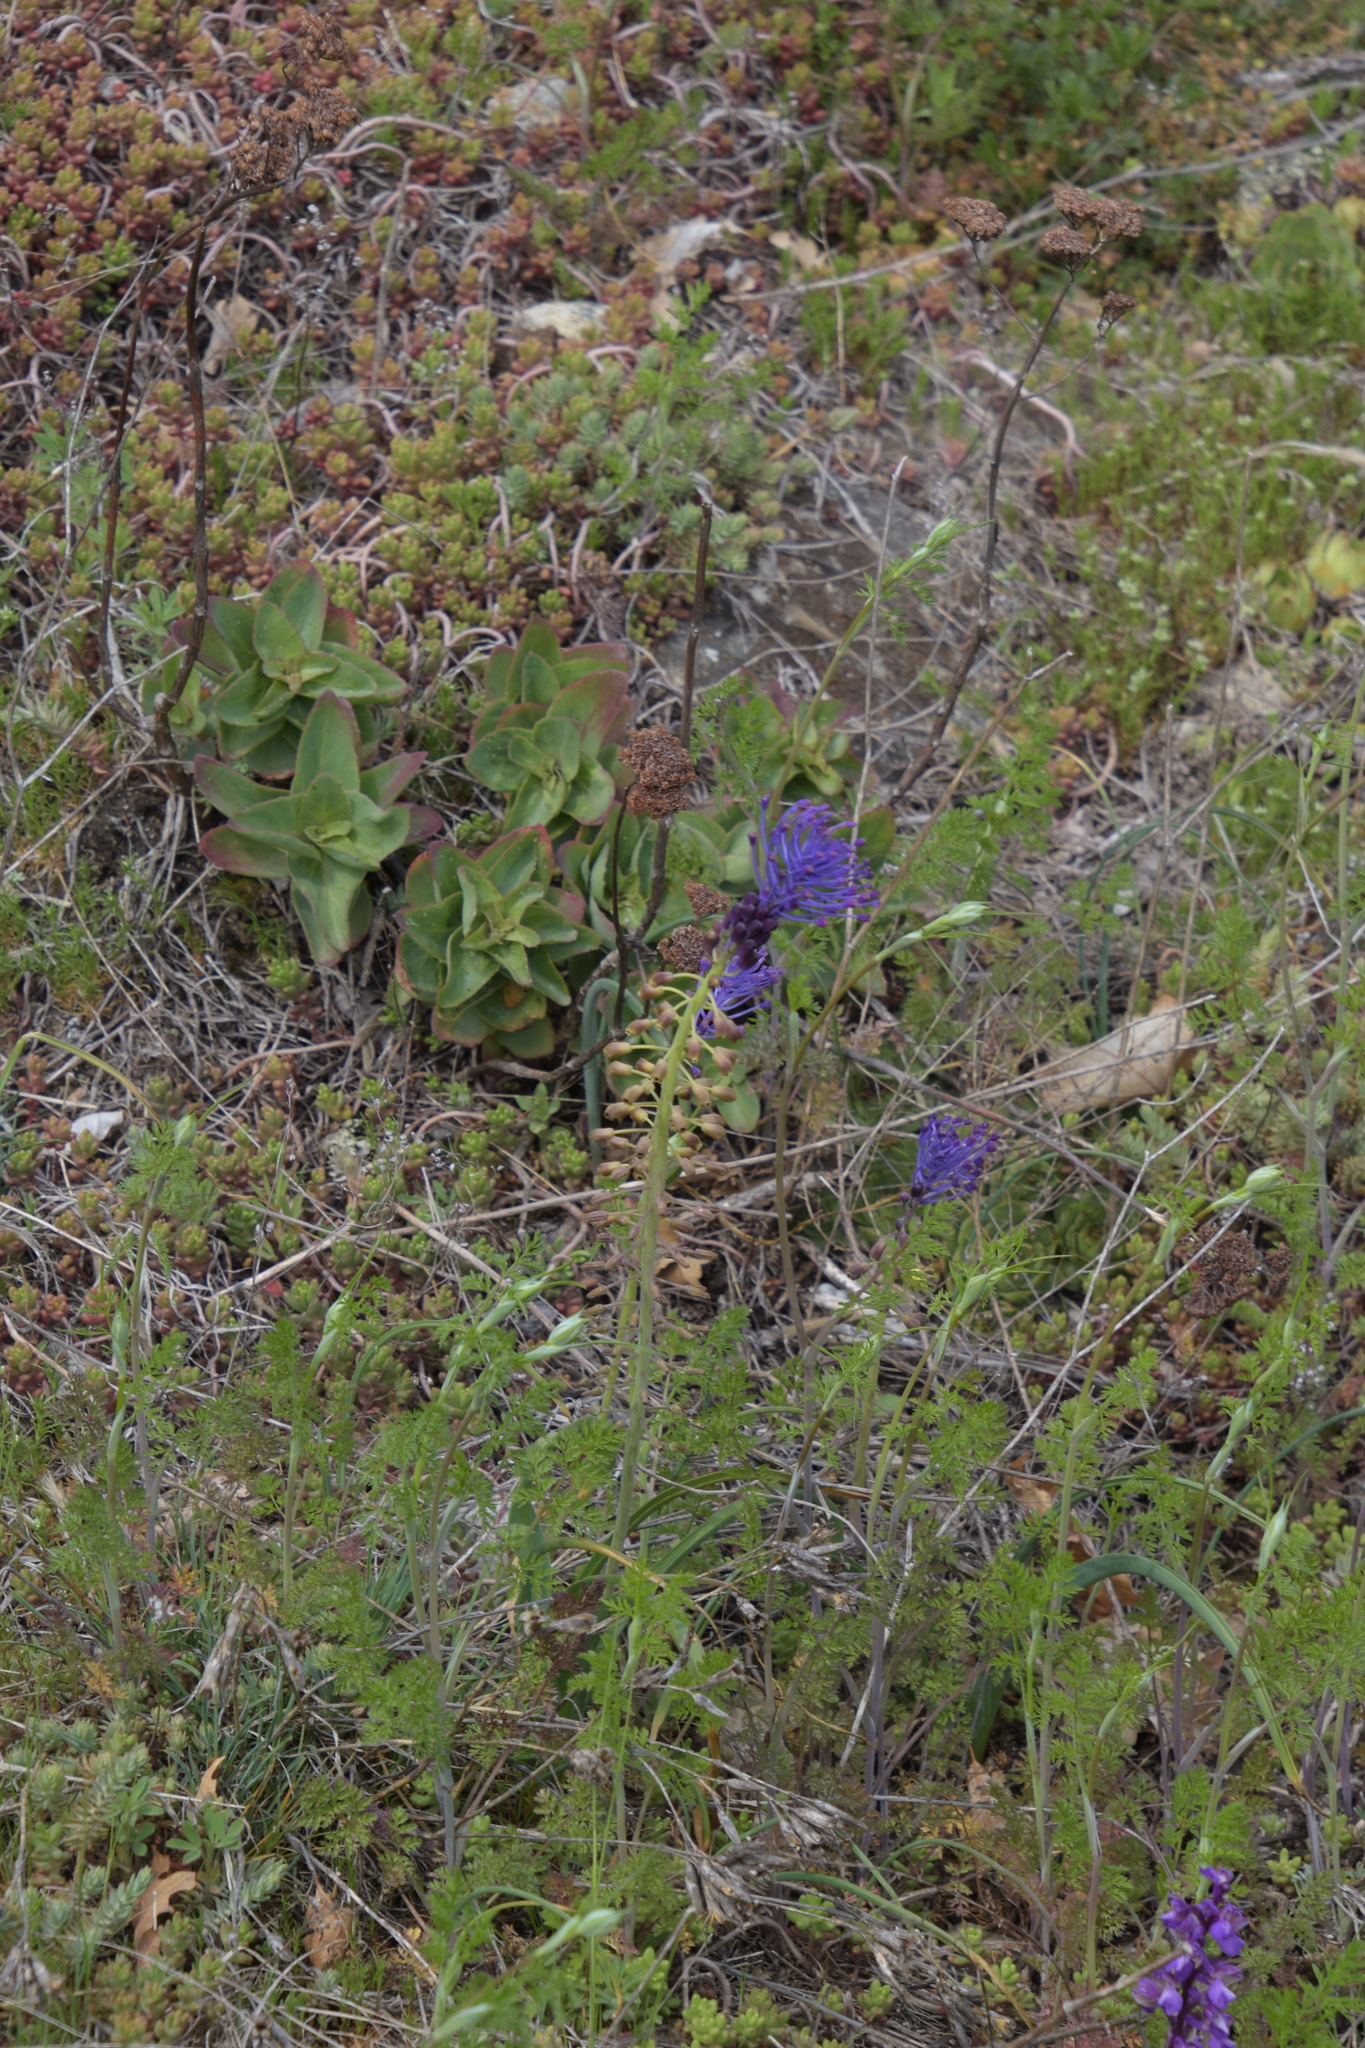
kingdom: Plantae
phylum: Tracheophyta
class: Liliopsida
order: Asparagales
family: Asparagaceae
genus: Muscari
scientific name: Muscari comosum
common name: Tassel hyacinth
